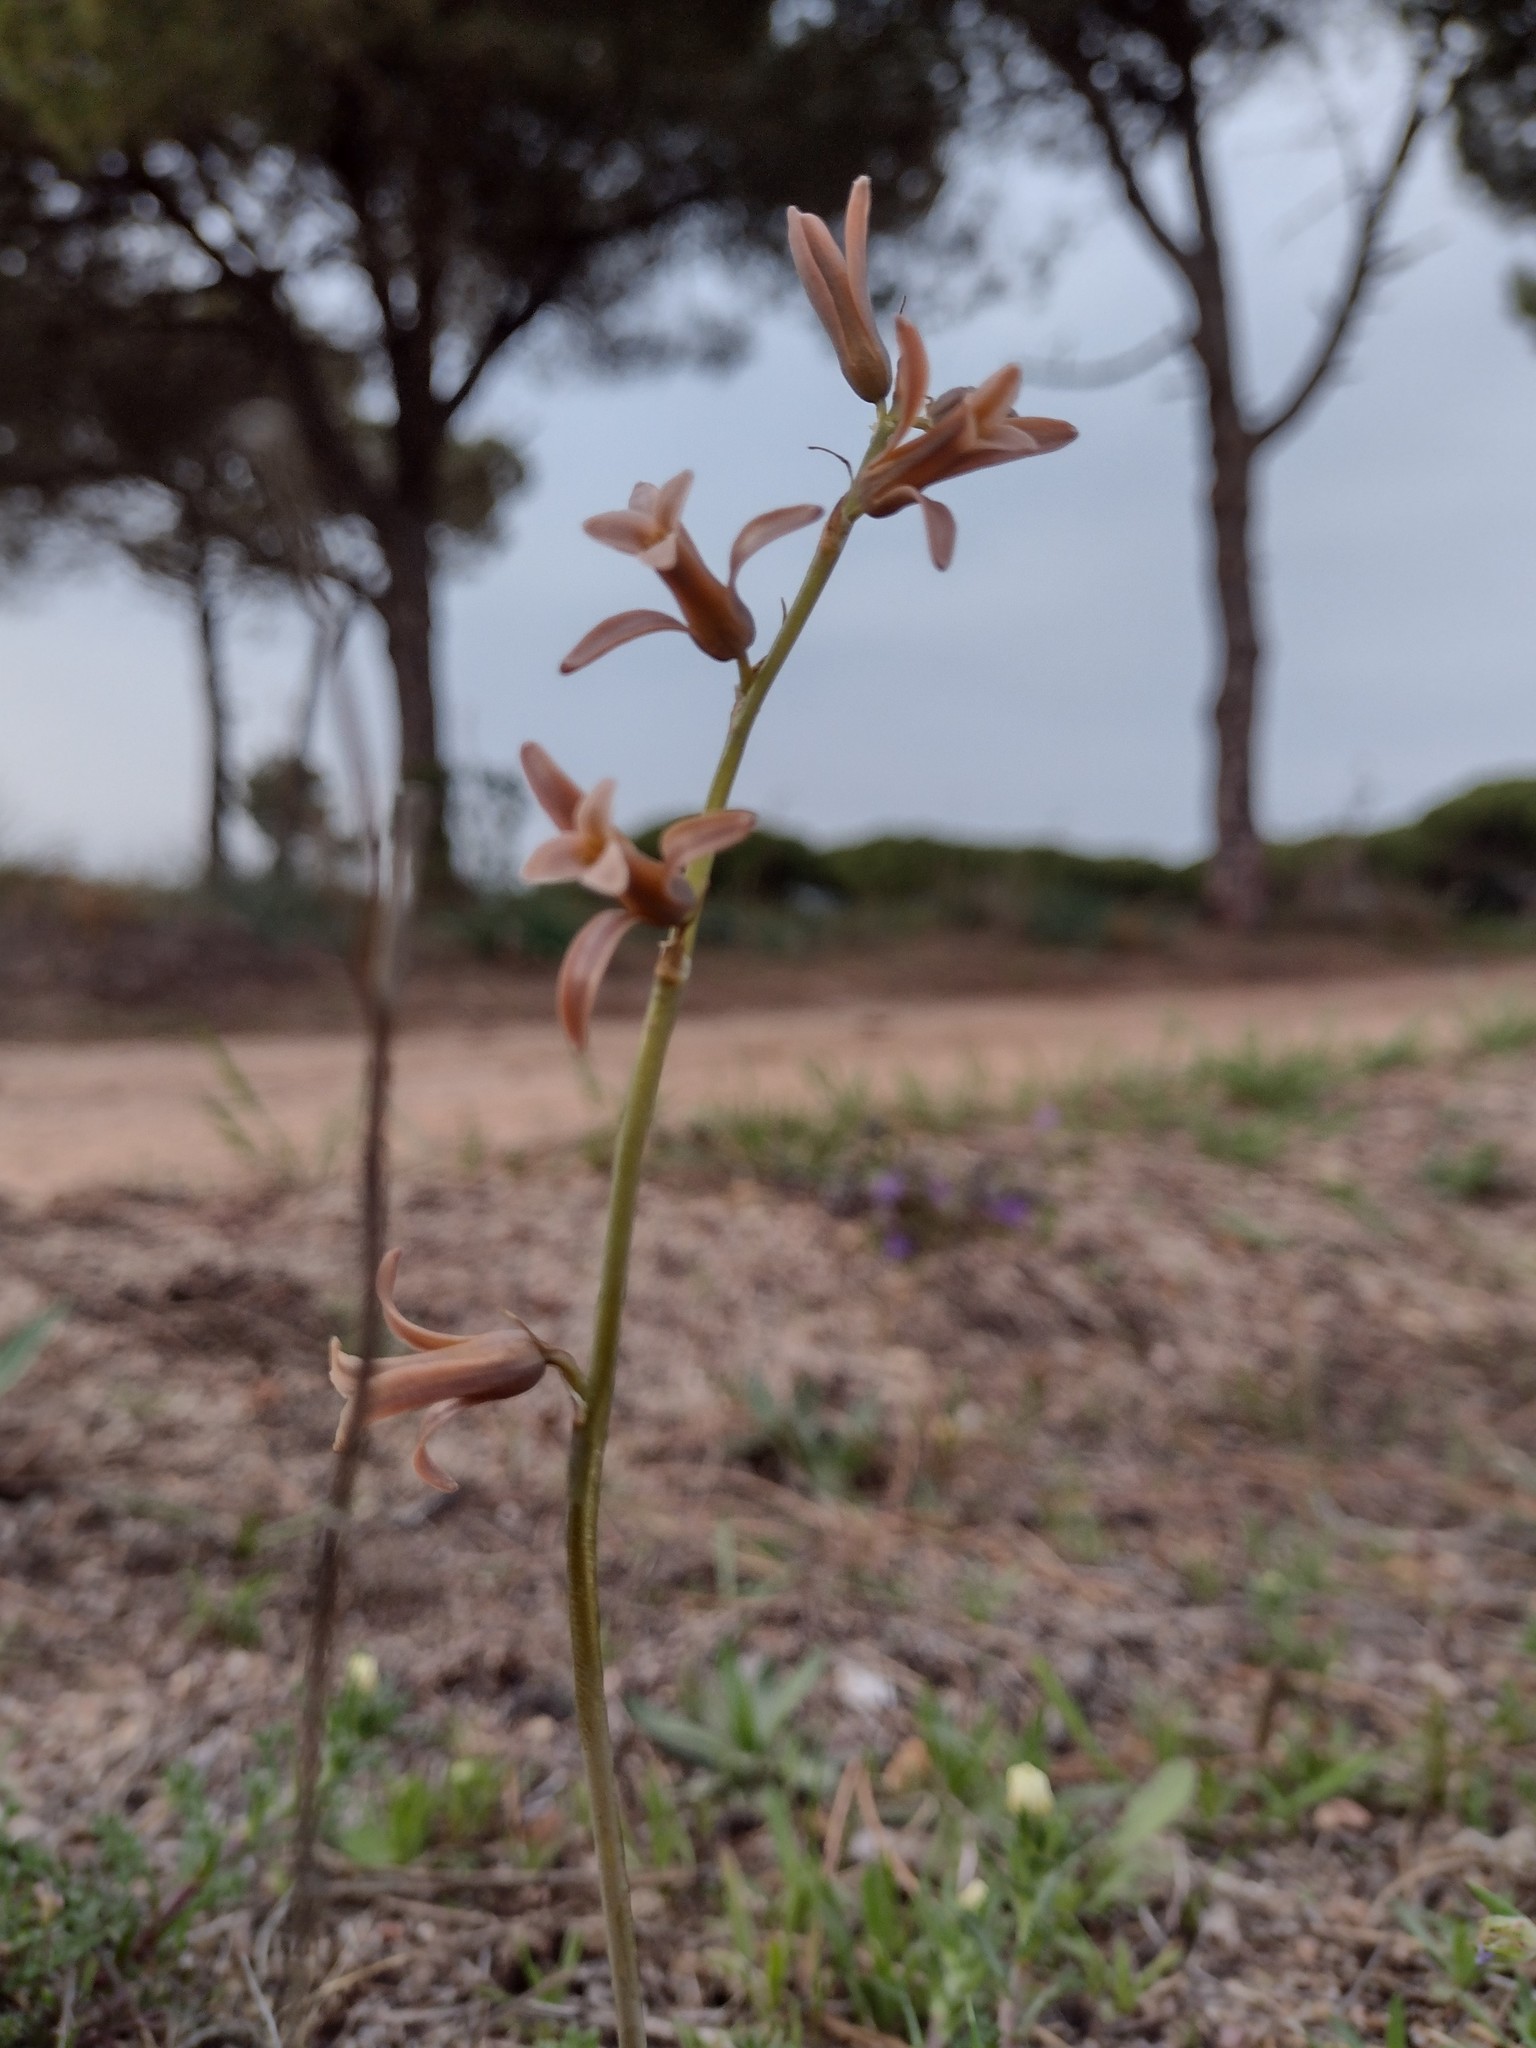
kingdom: Plantae
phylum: Tracheophyta
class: Liliopsida
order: Asparagales
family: Asparagaceae
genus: Dipcadi
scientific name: Dipcadi serotinum
